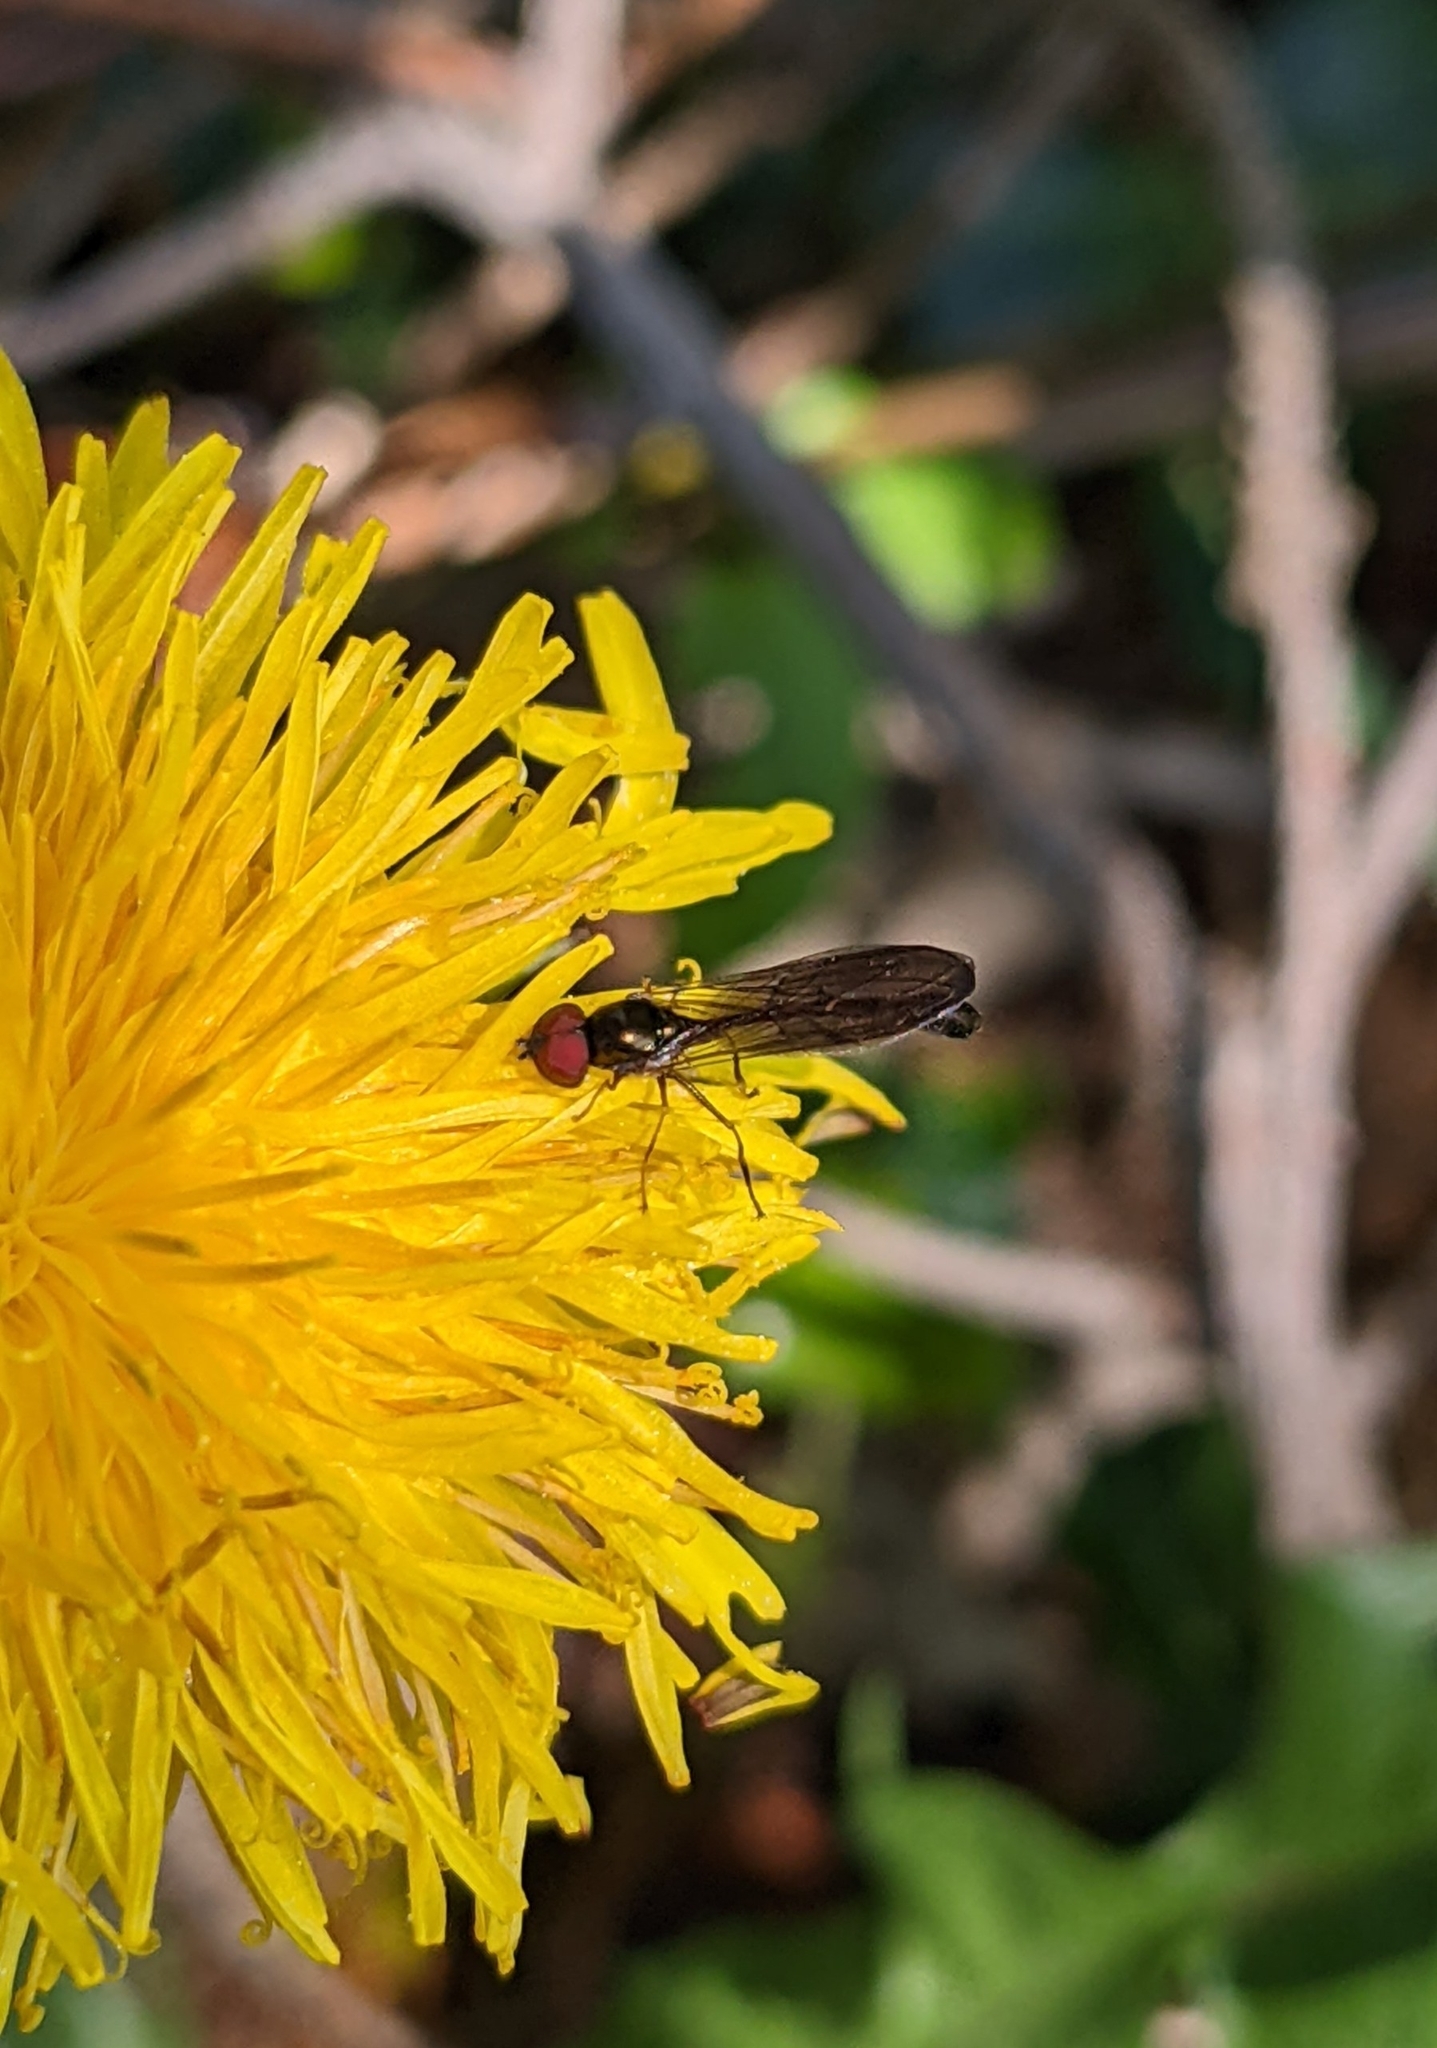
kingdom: Animalia
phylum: Arthropoda
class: Insecta
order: Diptera
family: Syrphidae
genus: Baccha
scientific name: Baccha elongata
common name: Common dainty
